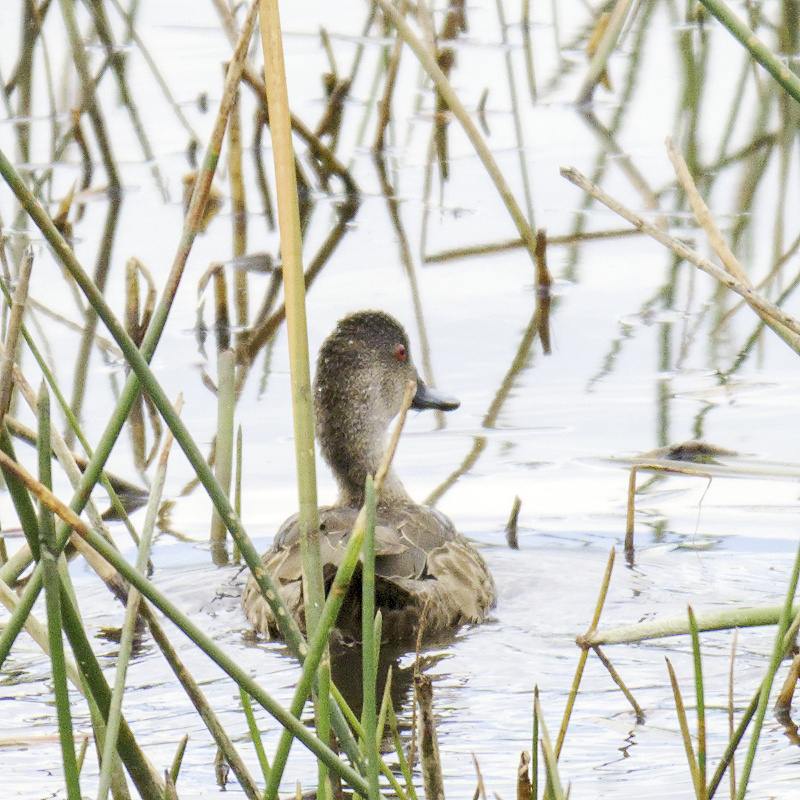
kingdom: Animalia
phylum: Chordata
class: Aves
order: Anseriformes
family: Anatidae
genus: Anas
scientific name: Anas gracilis
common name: Grey teal
